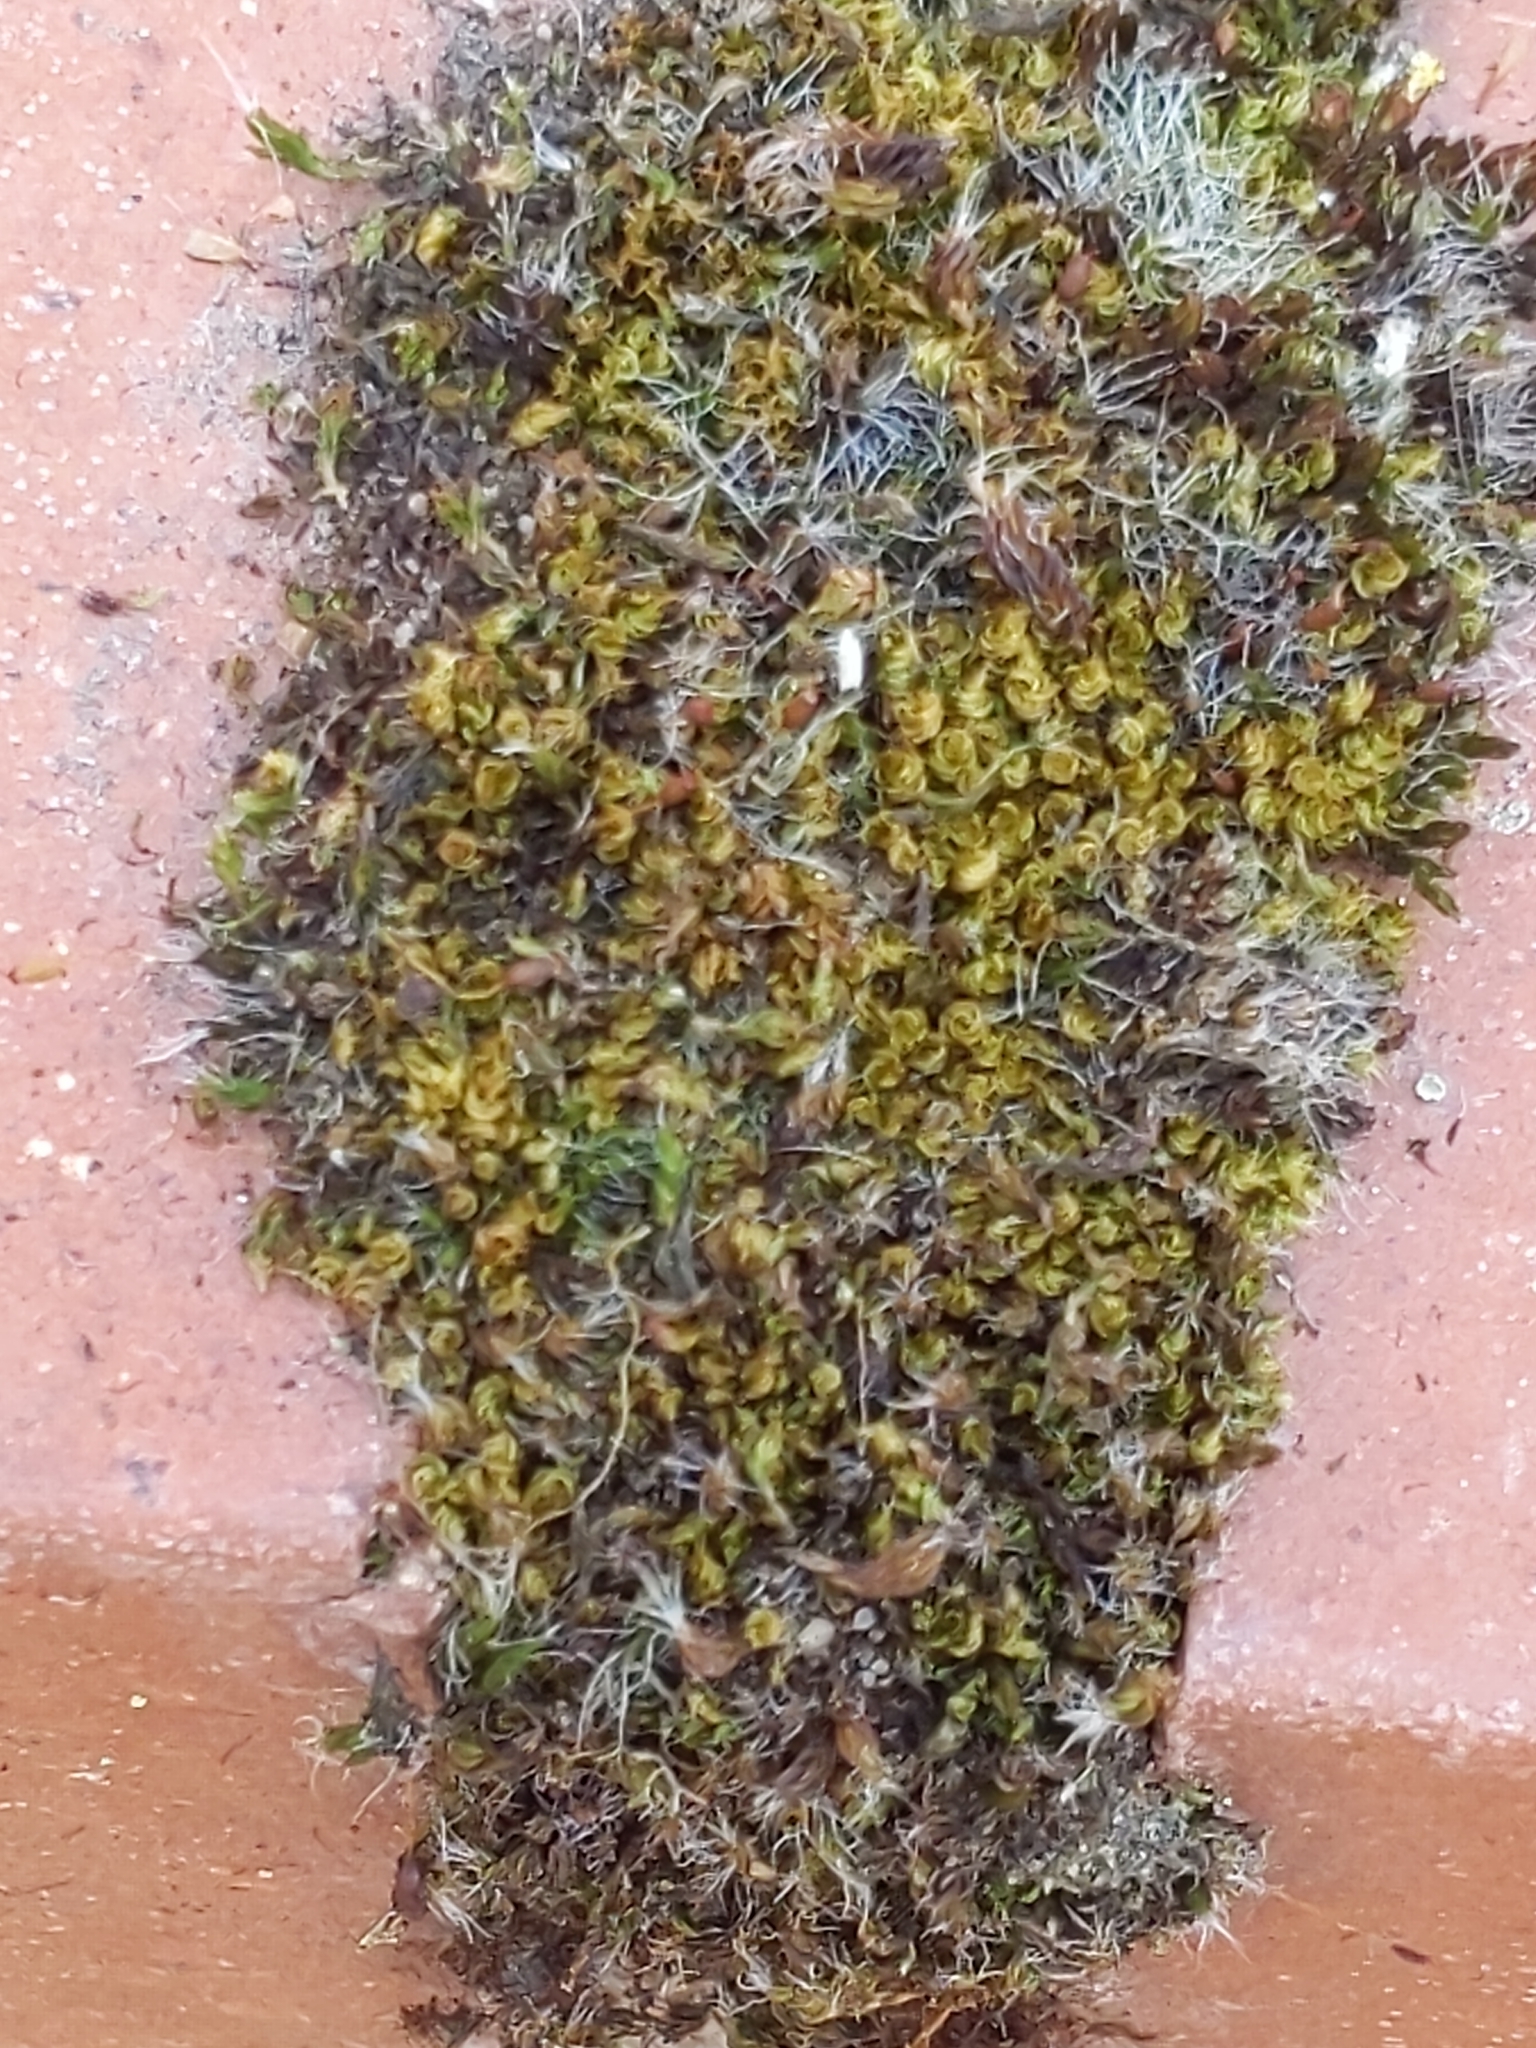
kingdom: Plantae
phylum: Bryophyta
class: Bryopsida
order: Pottiales
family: Pottiaceae
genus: Tortula
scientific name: Tortula muralis
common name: Wall screw-moss
